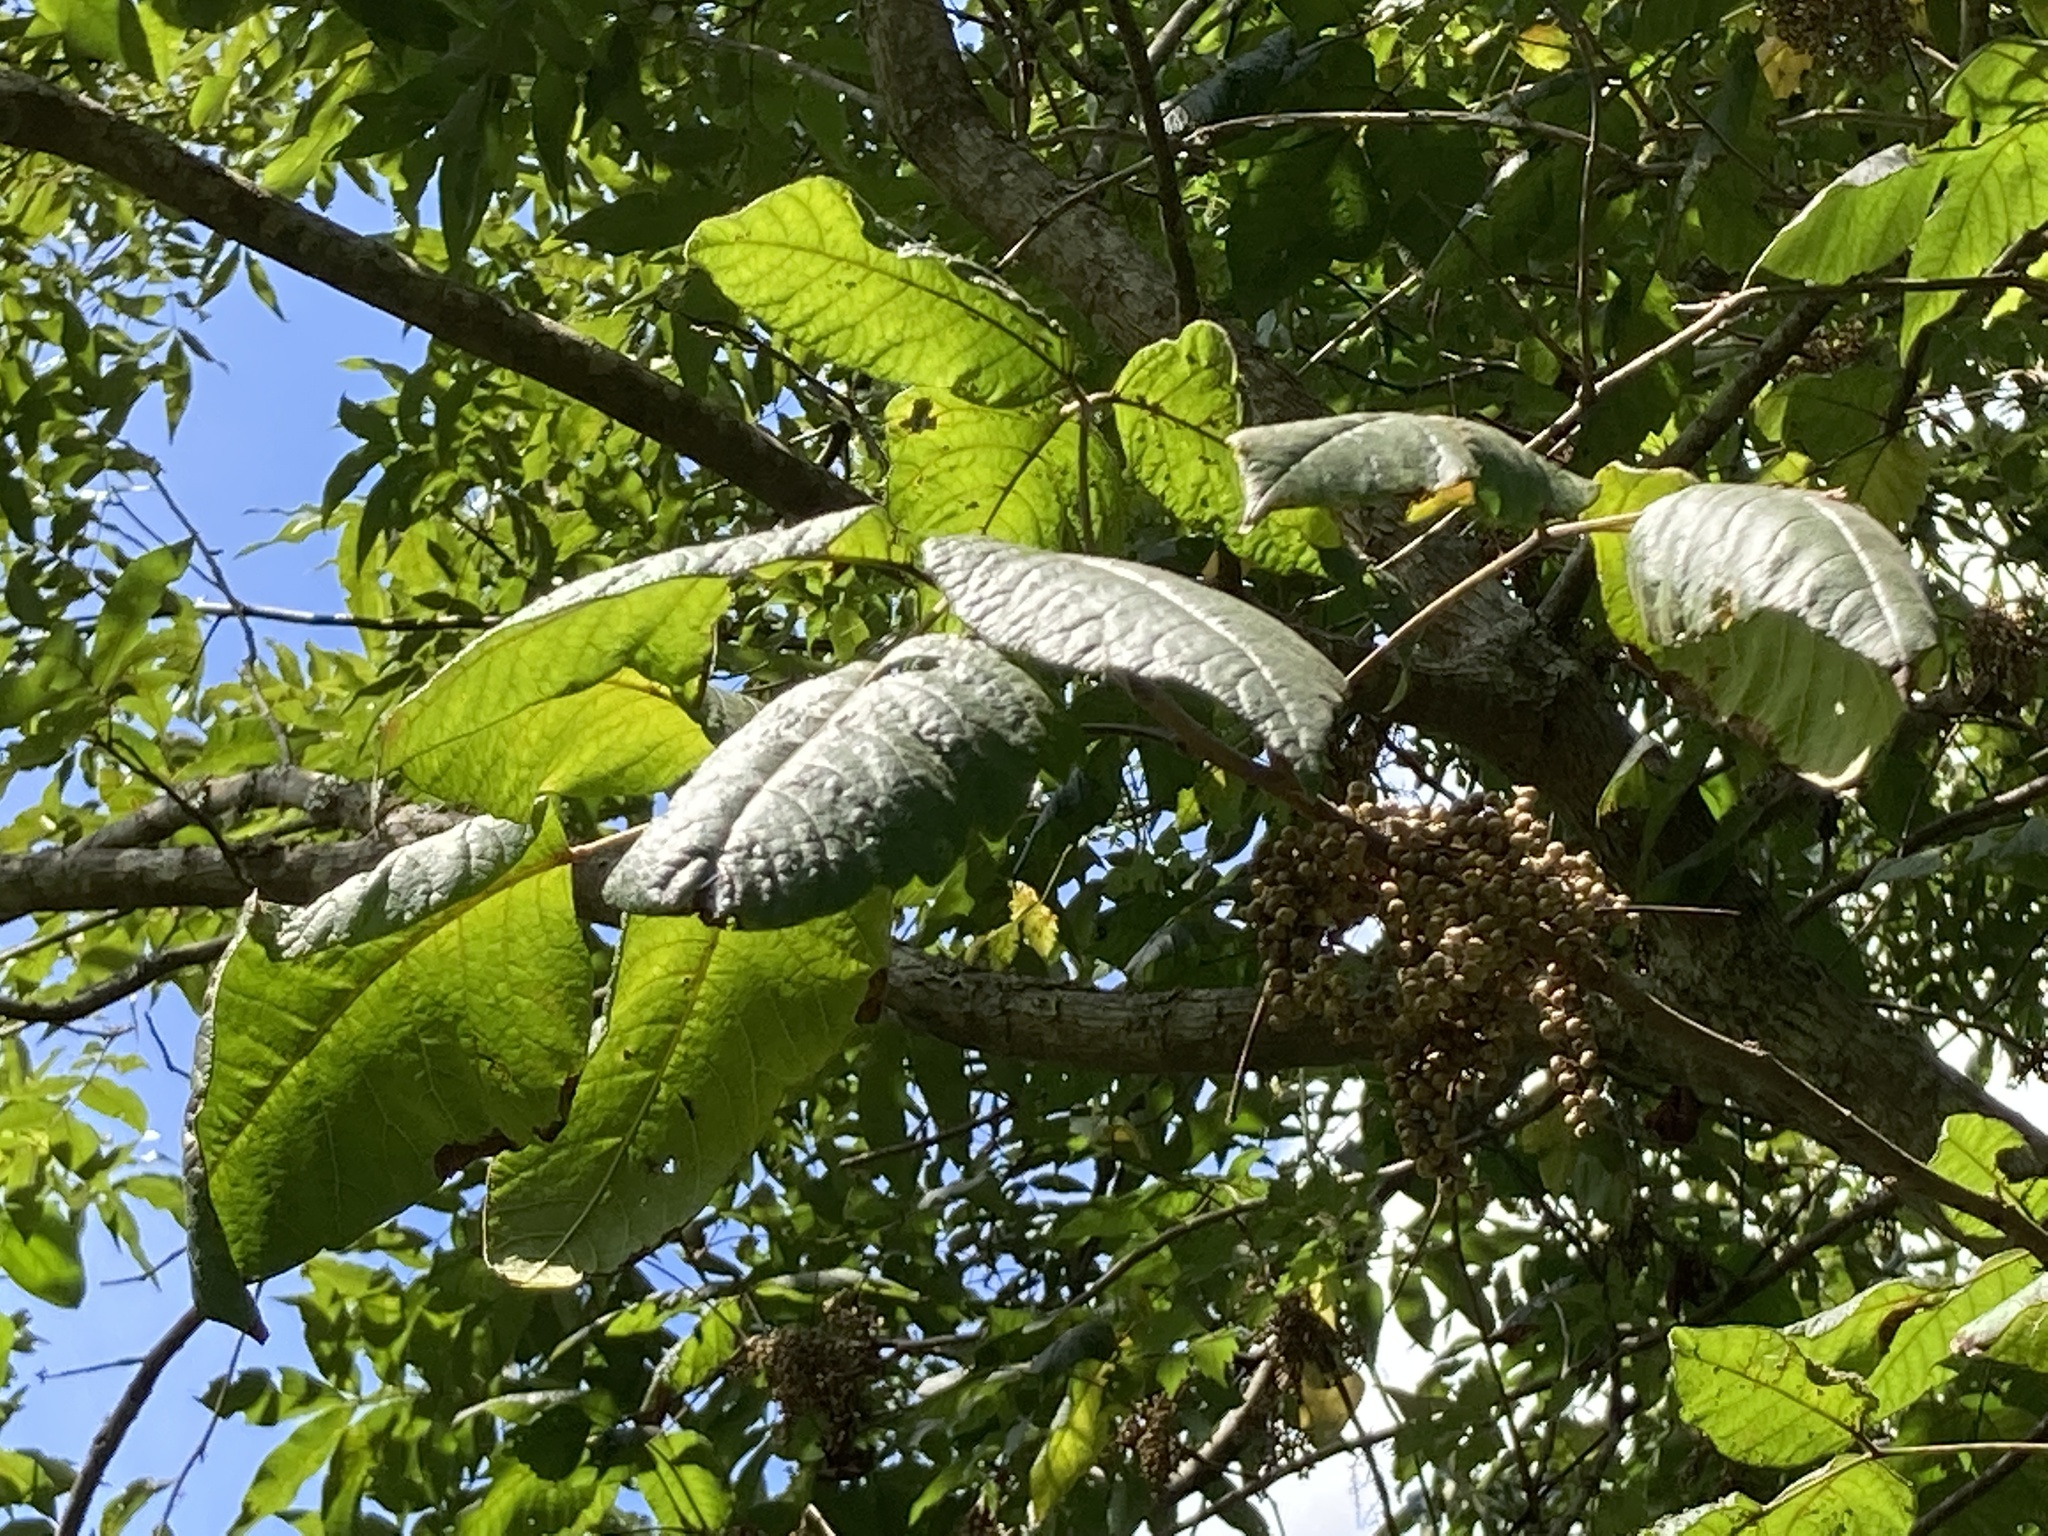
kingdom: Plantae
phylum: Tracheophyta
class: Magnoliopsida
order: Sapindales
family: Anacardiaceae
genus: Toxicodendron
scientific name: Toxicodendron radicans
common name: Poison ivy
